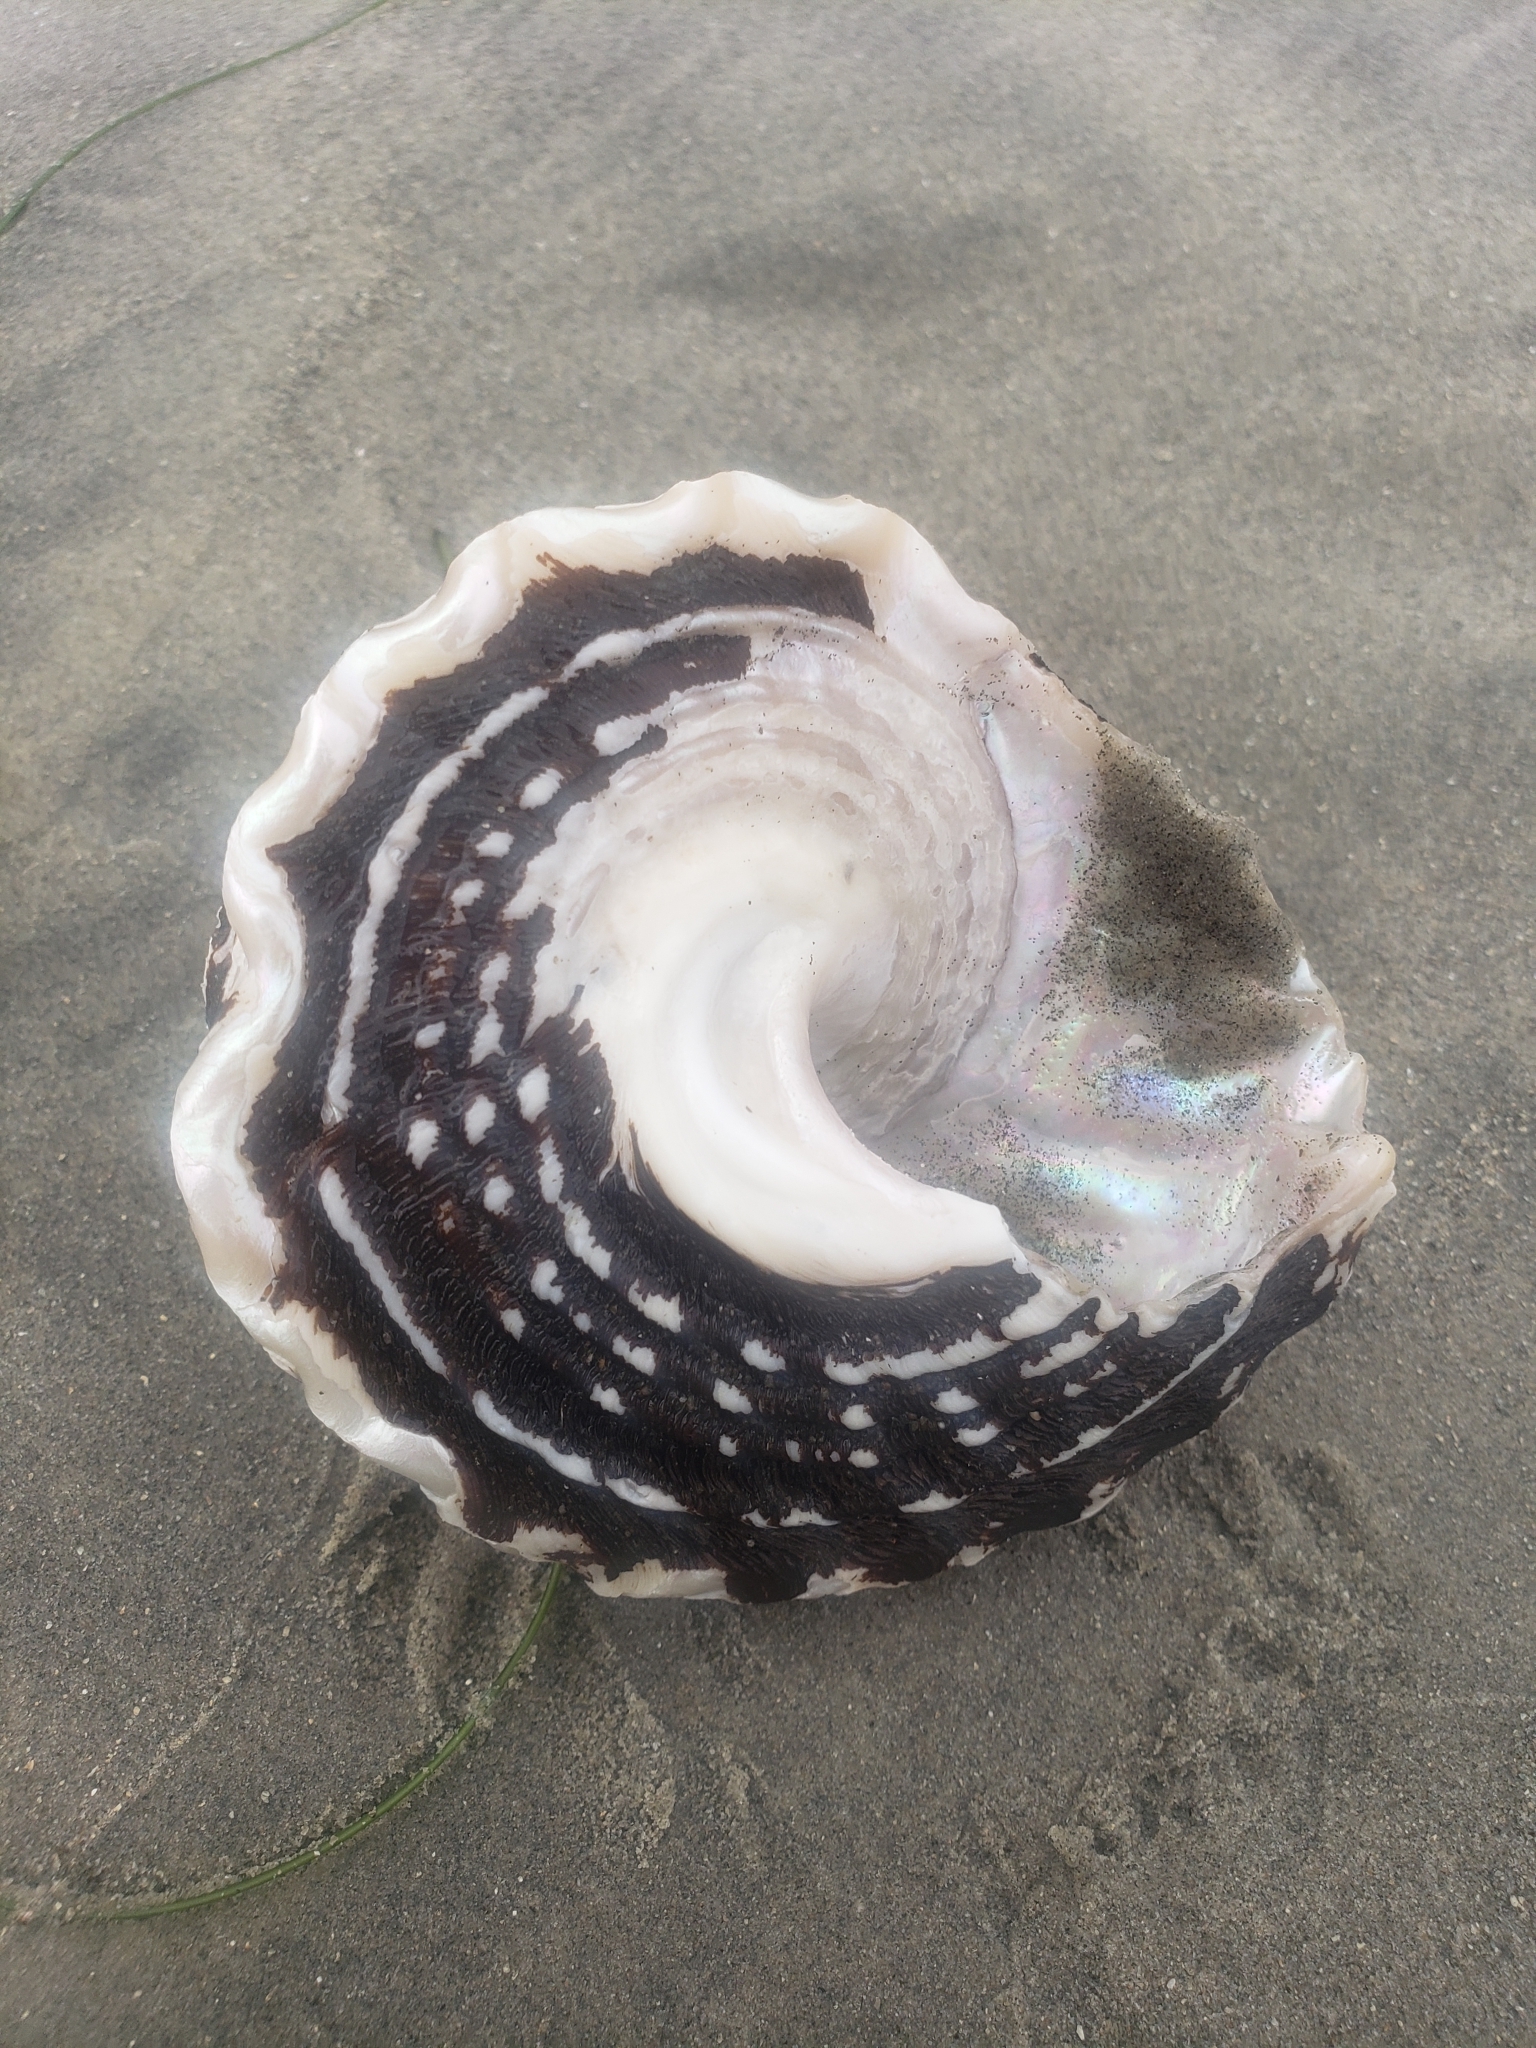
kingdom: Animalia
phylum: Mollusca
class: Gastropoda
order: Trochida
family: Turbinidae
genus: Megastraea
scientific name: Megastraea undosa
